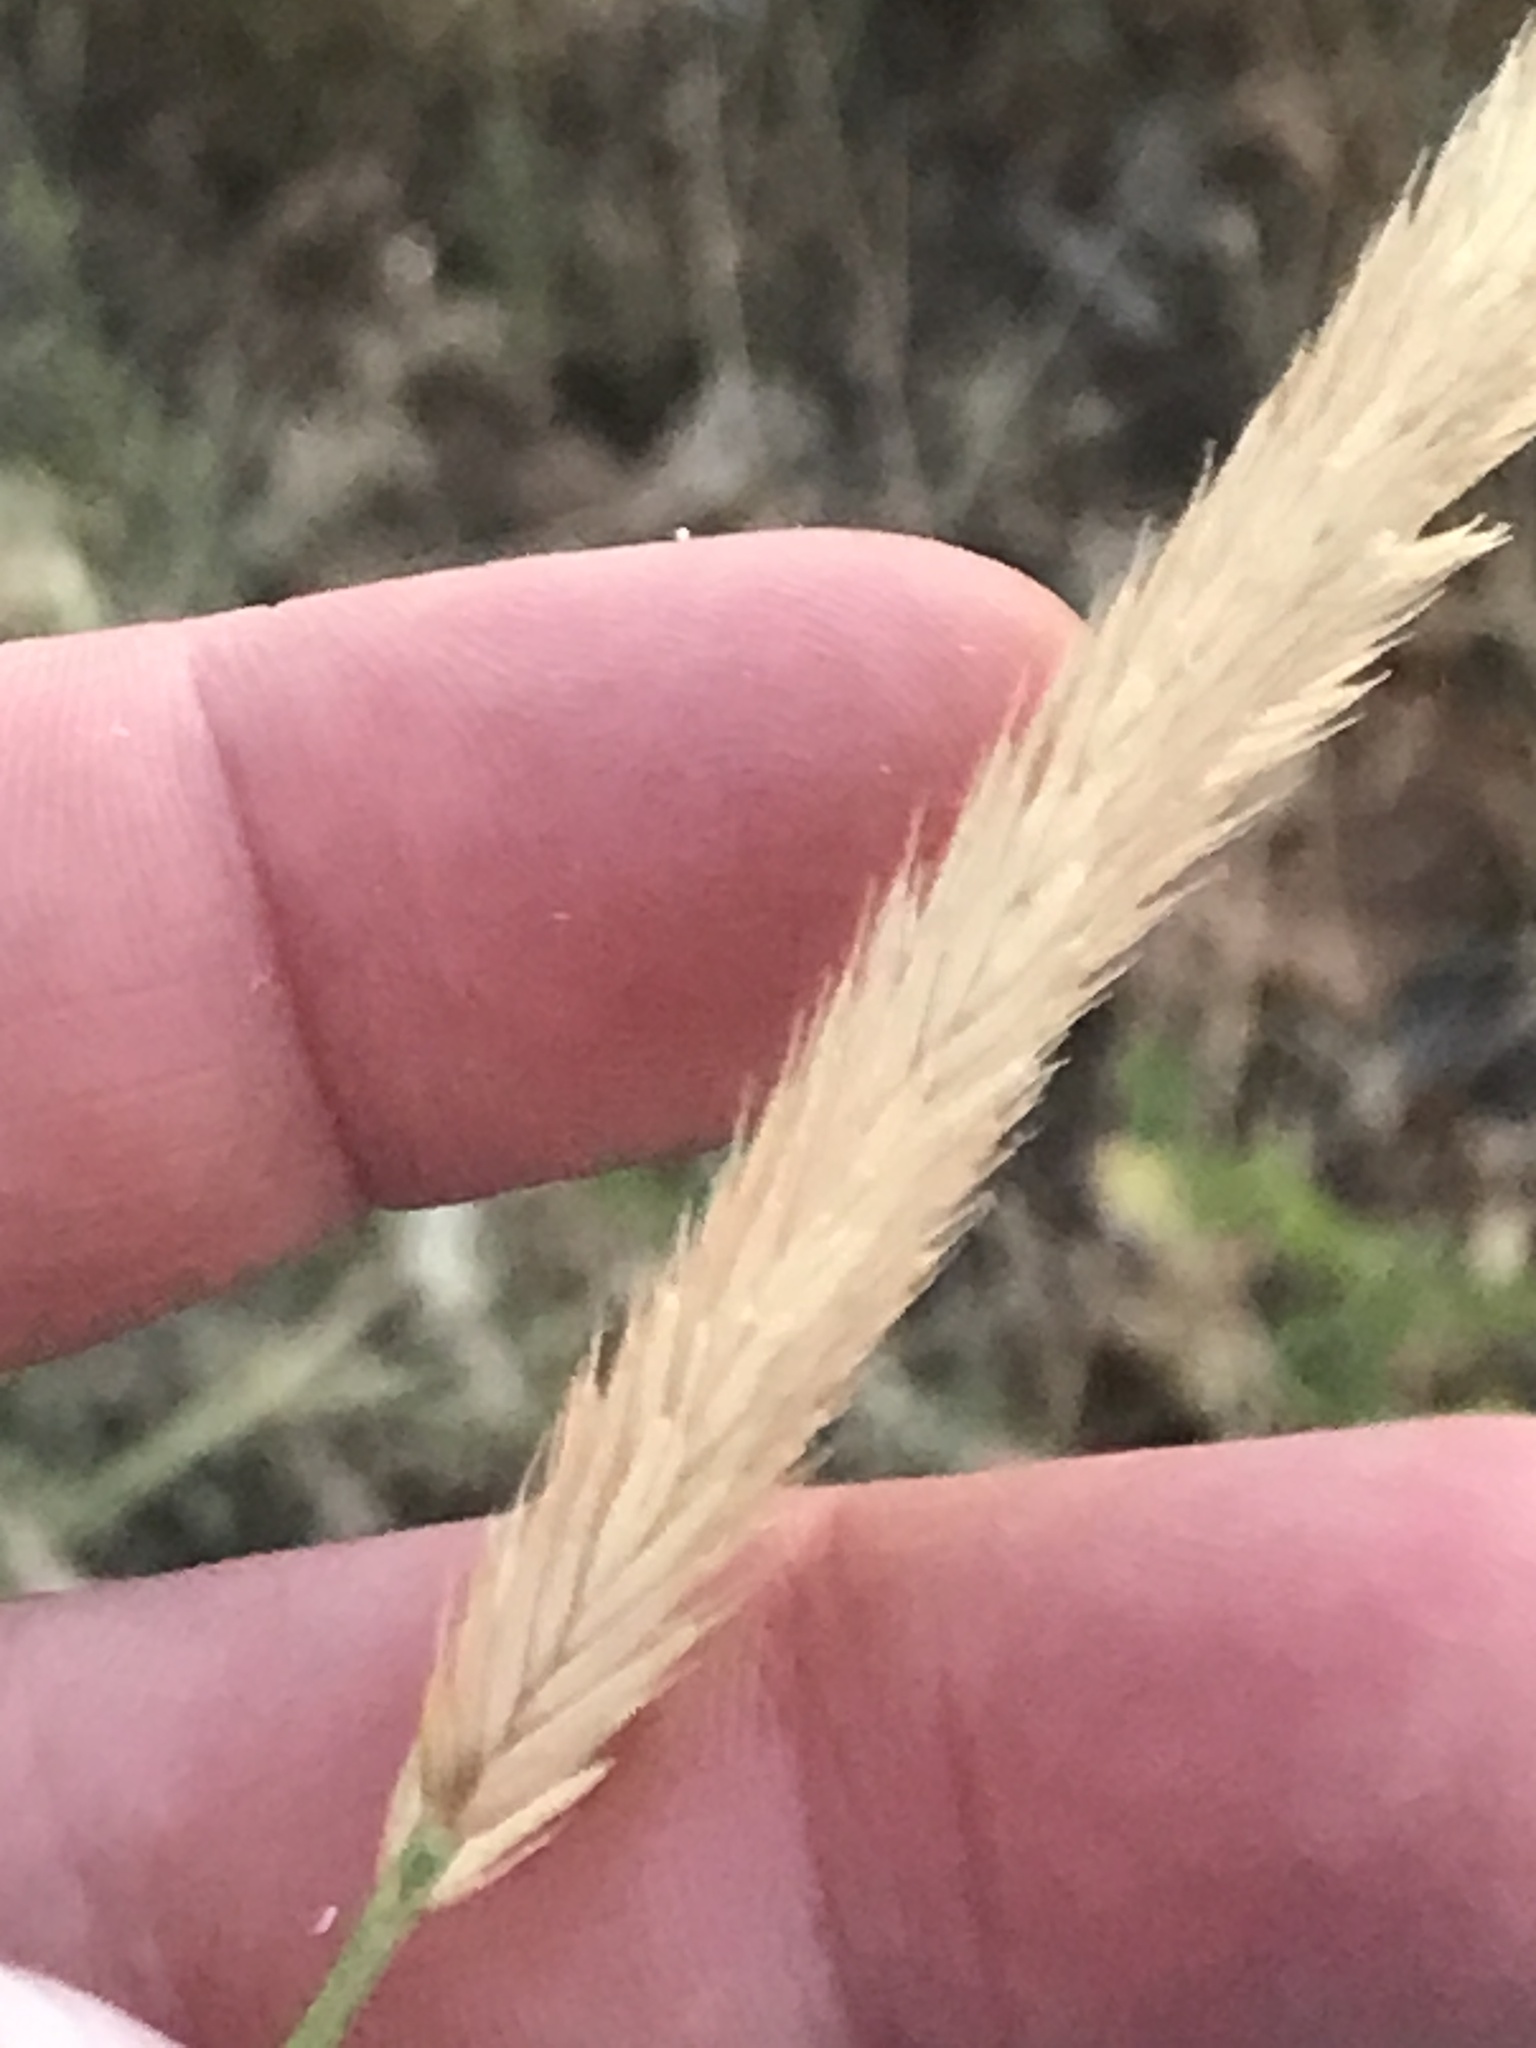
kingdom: Plantae
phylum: Tracheophyta
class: Liliopsida
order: Poales
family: Poaceae
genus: Agropyron
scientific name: Agropyron cristatum
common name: Crested wheatgrass
